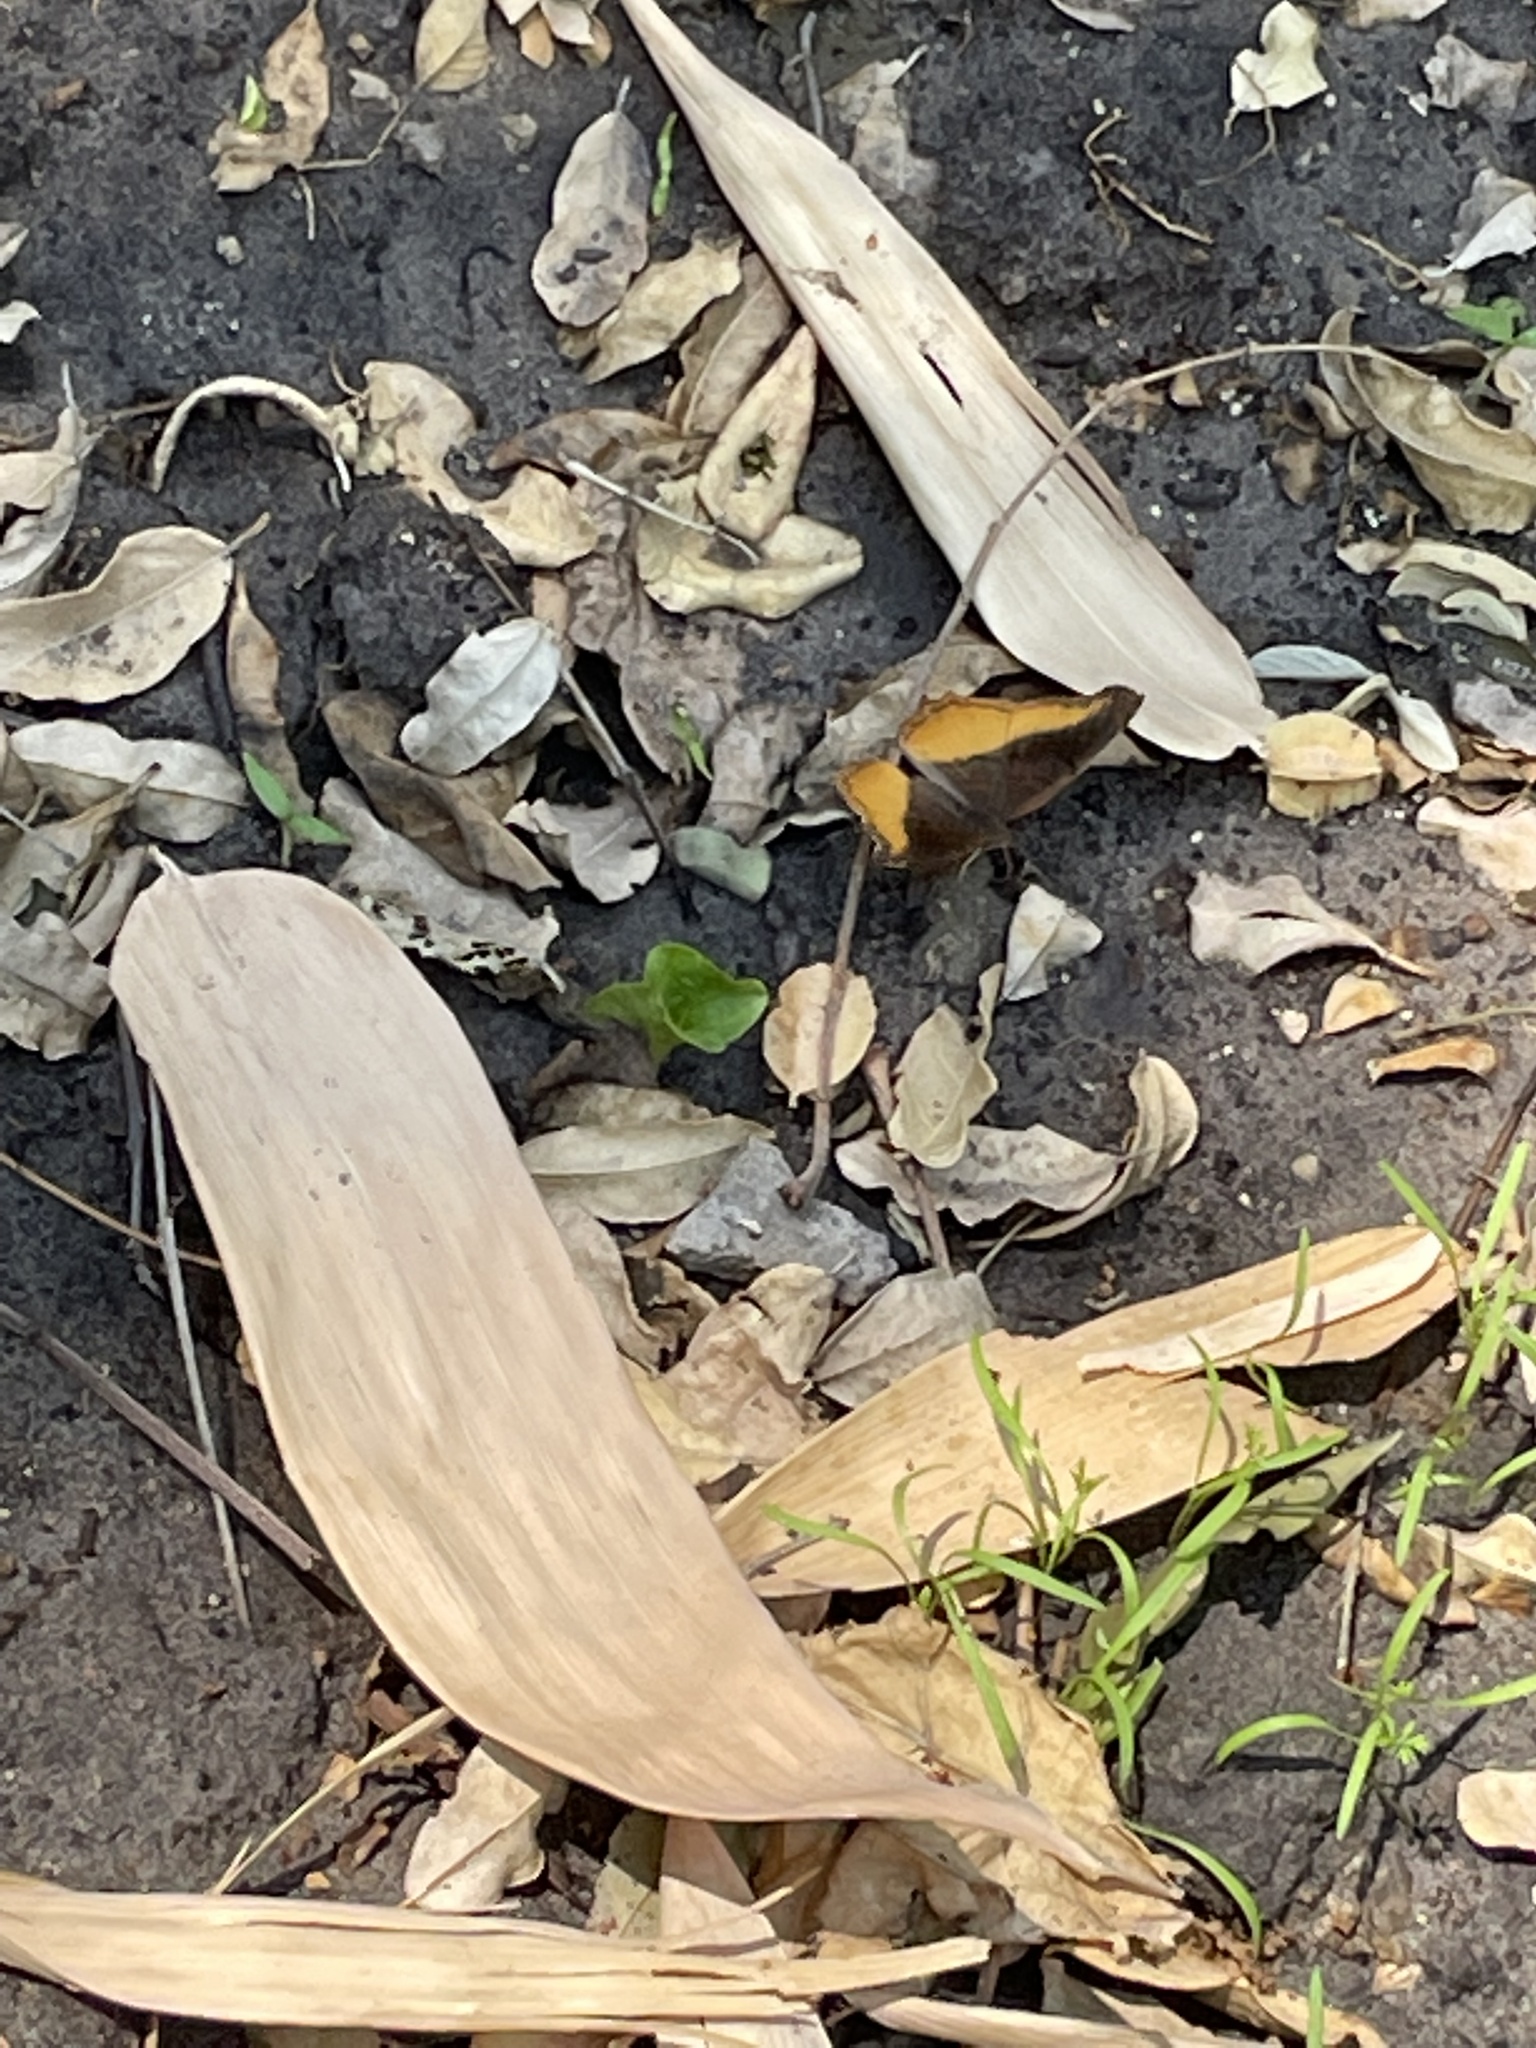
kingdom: Animalia
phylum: Arthropoda
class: Insecta
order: Lepidoptera
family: Nymphalidae
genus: Eurytela
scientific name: Eurytela dryope
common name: Golden piper
